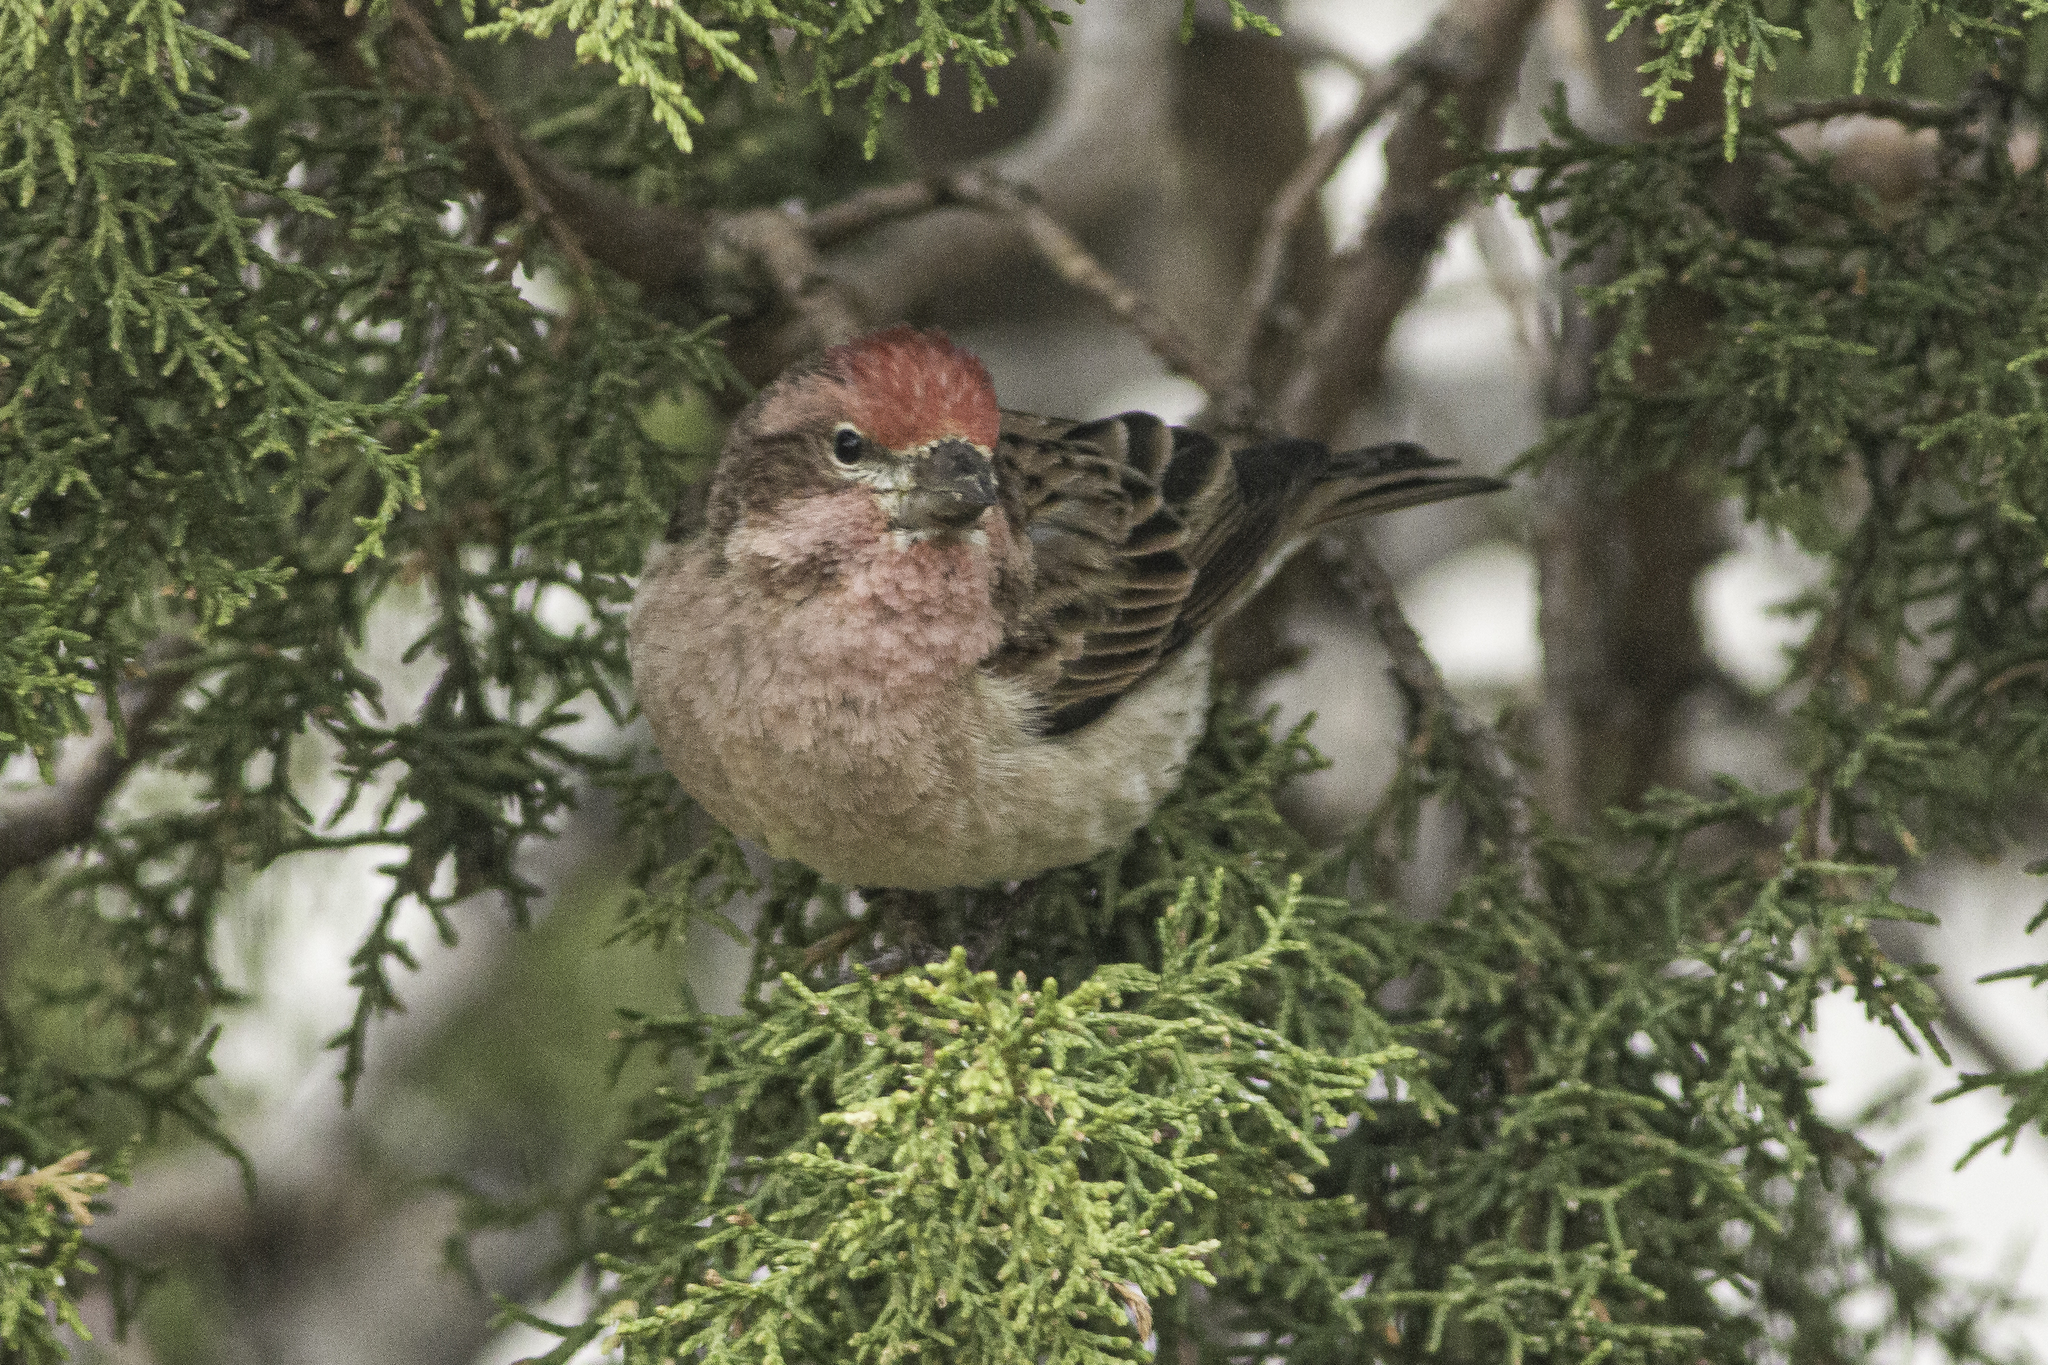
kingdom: Animalia
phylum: Chordata
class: Aves
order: Passeriformes
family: Fringillidae
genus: Haemorhous
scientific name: Haemorhous cassinii
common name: Cassin's finch
